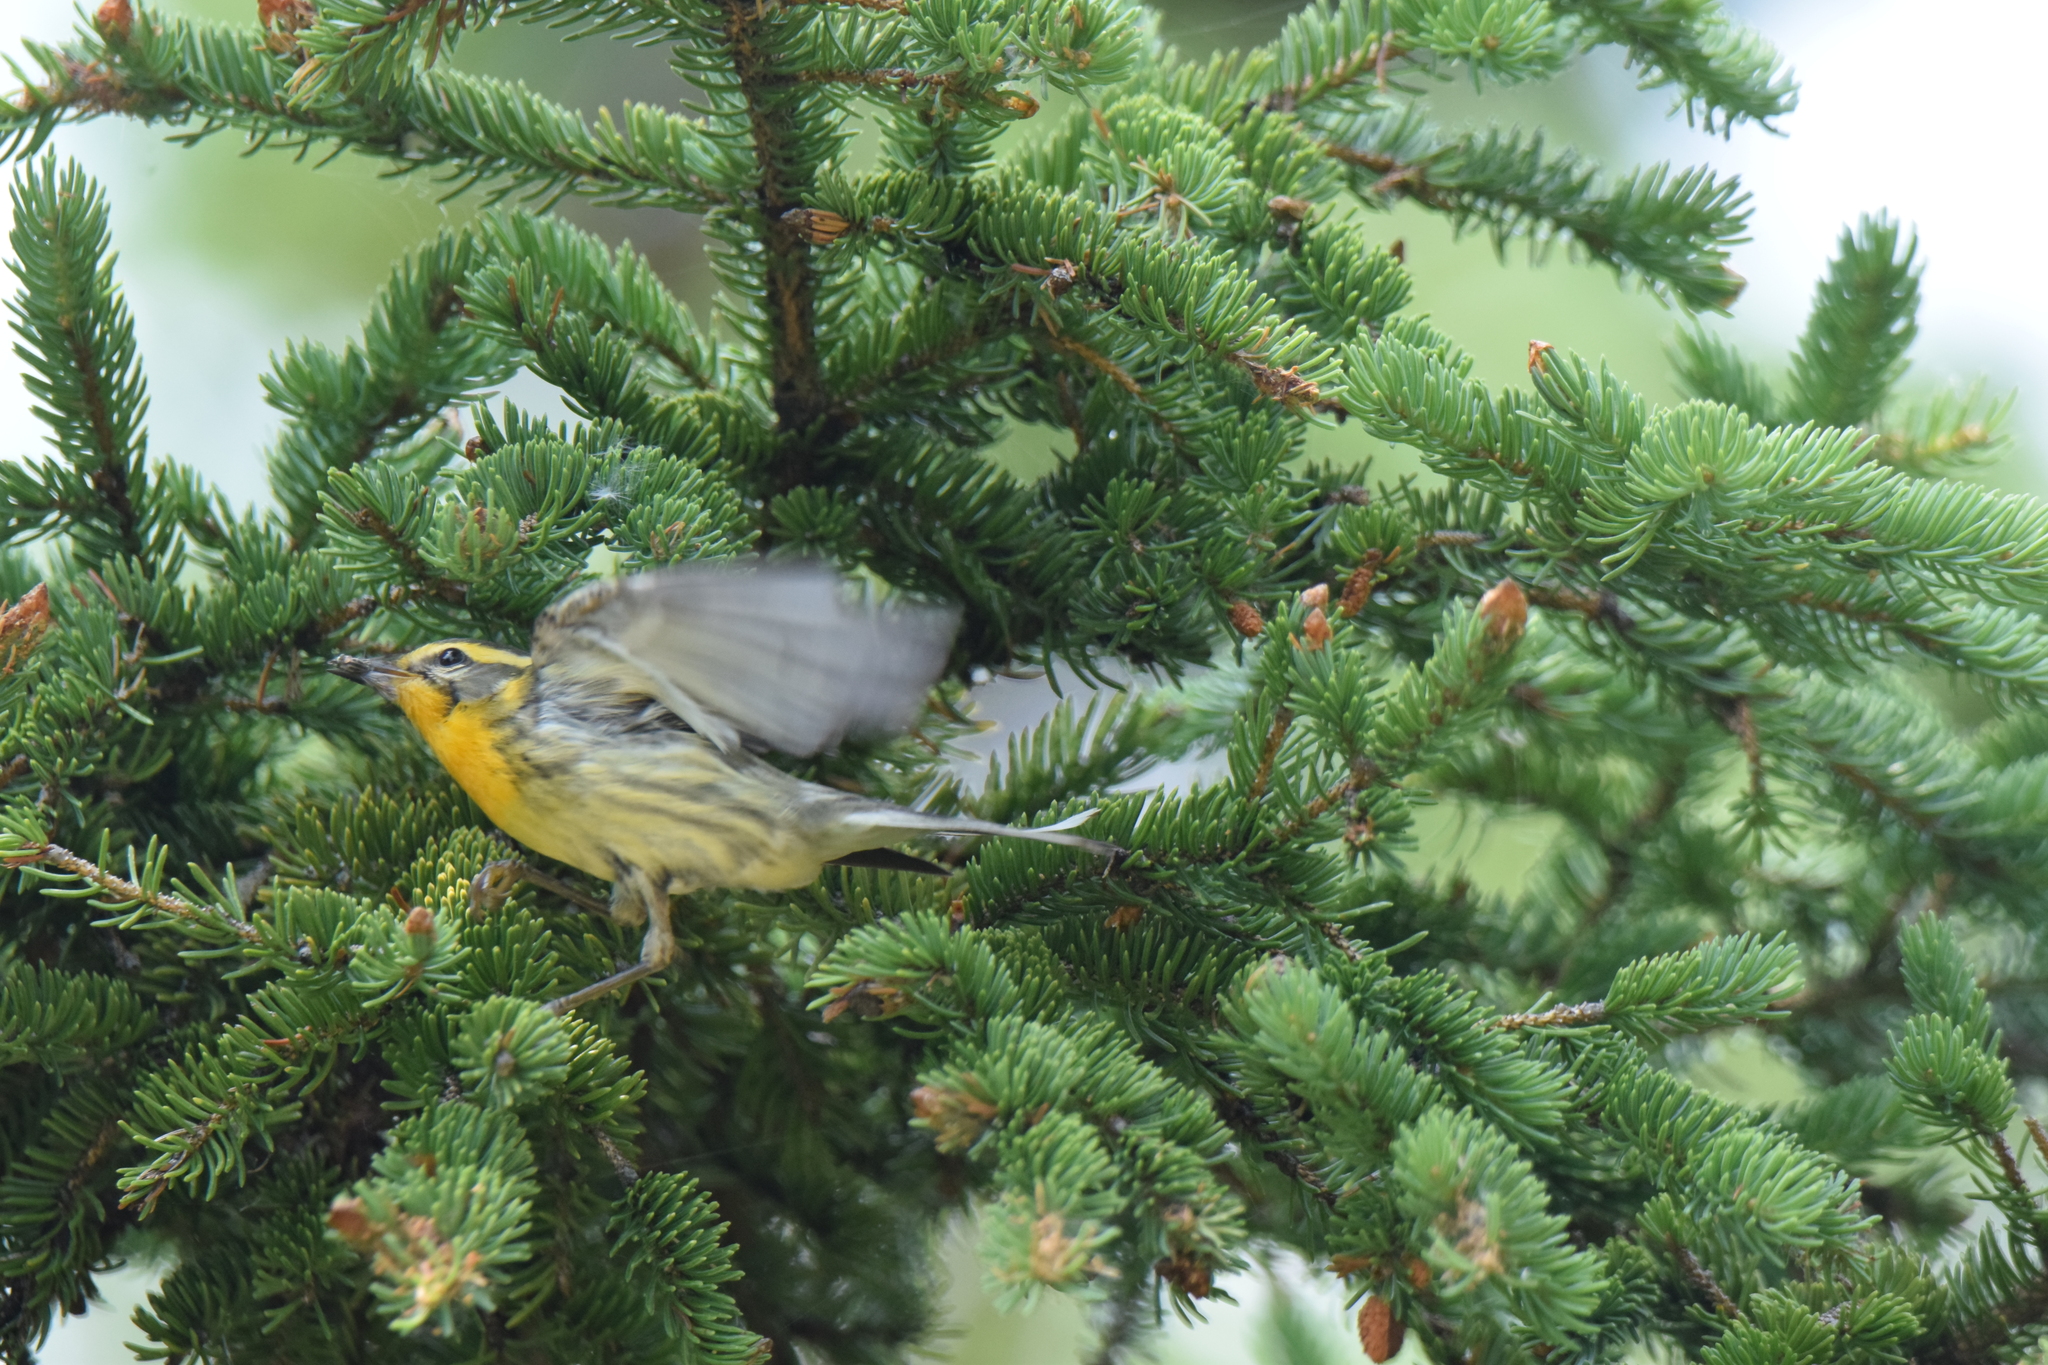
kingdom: Animalia
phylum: Chordata
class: Aves
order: Passeriformes
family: Parulidae
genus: Setophaga
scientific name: Setophaga fusca
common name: Blackburnian warbler
